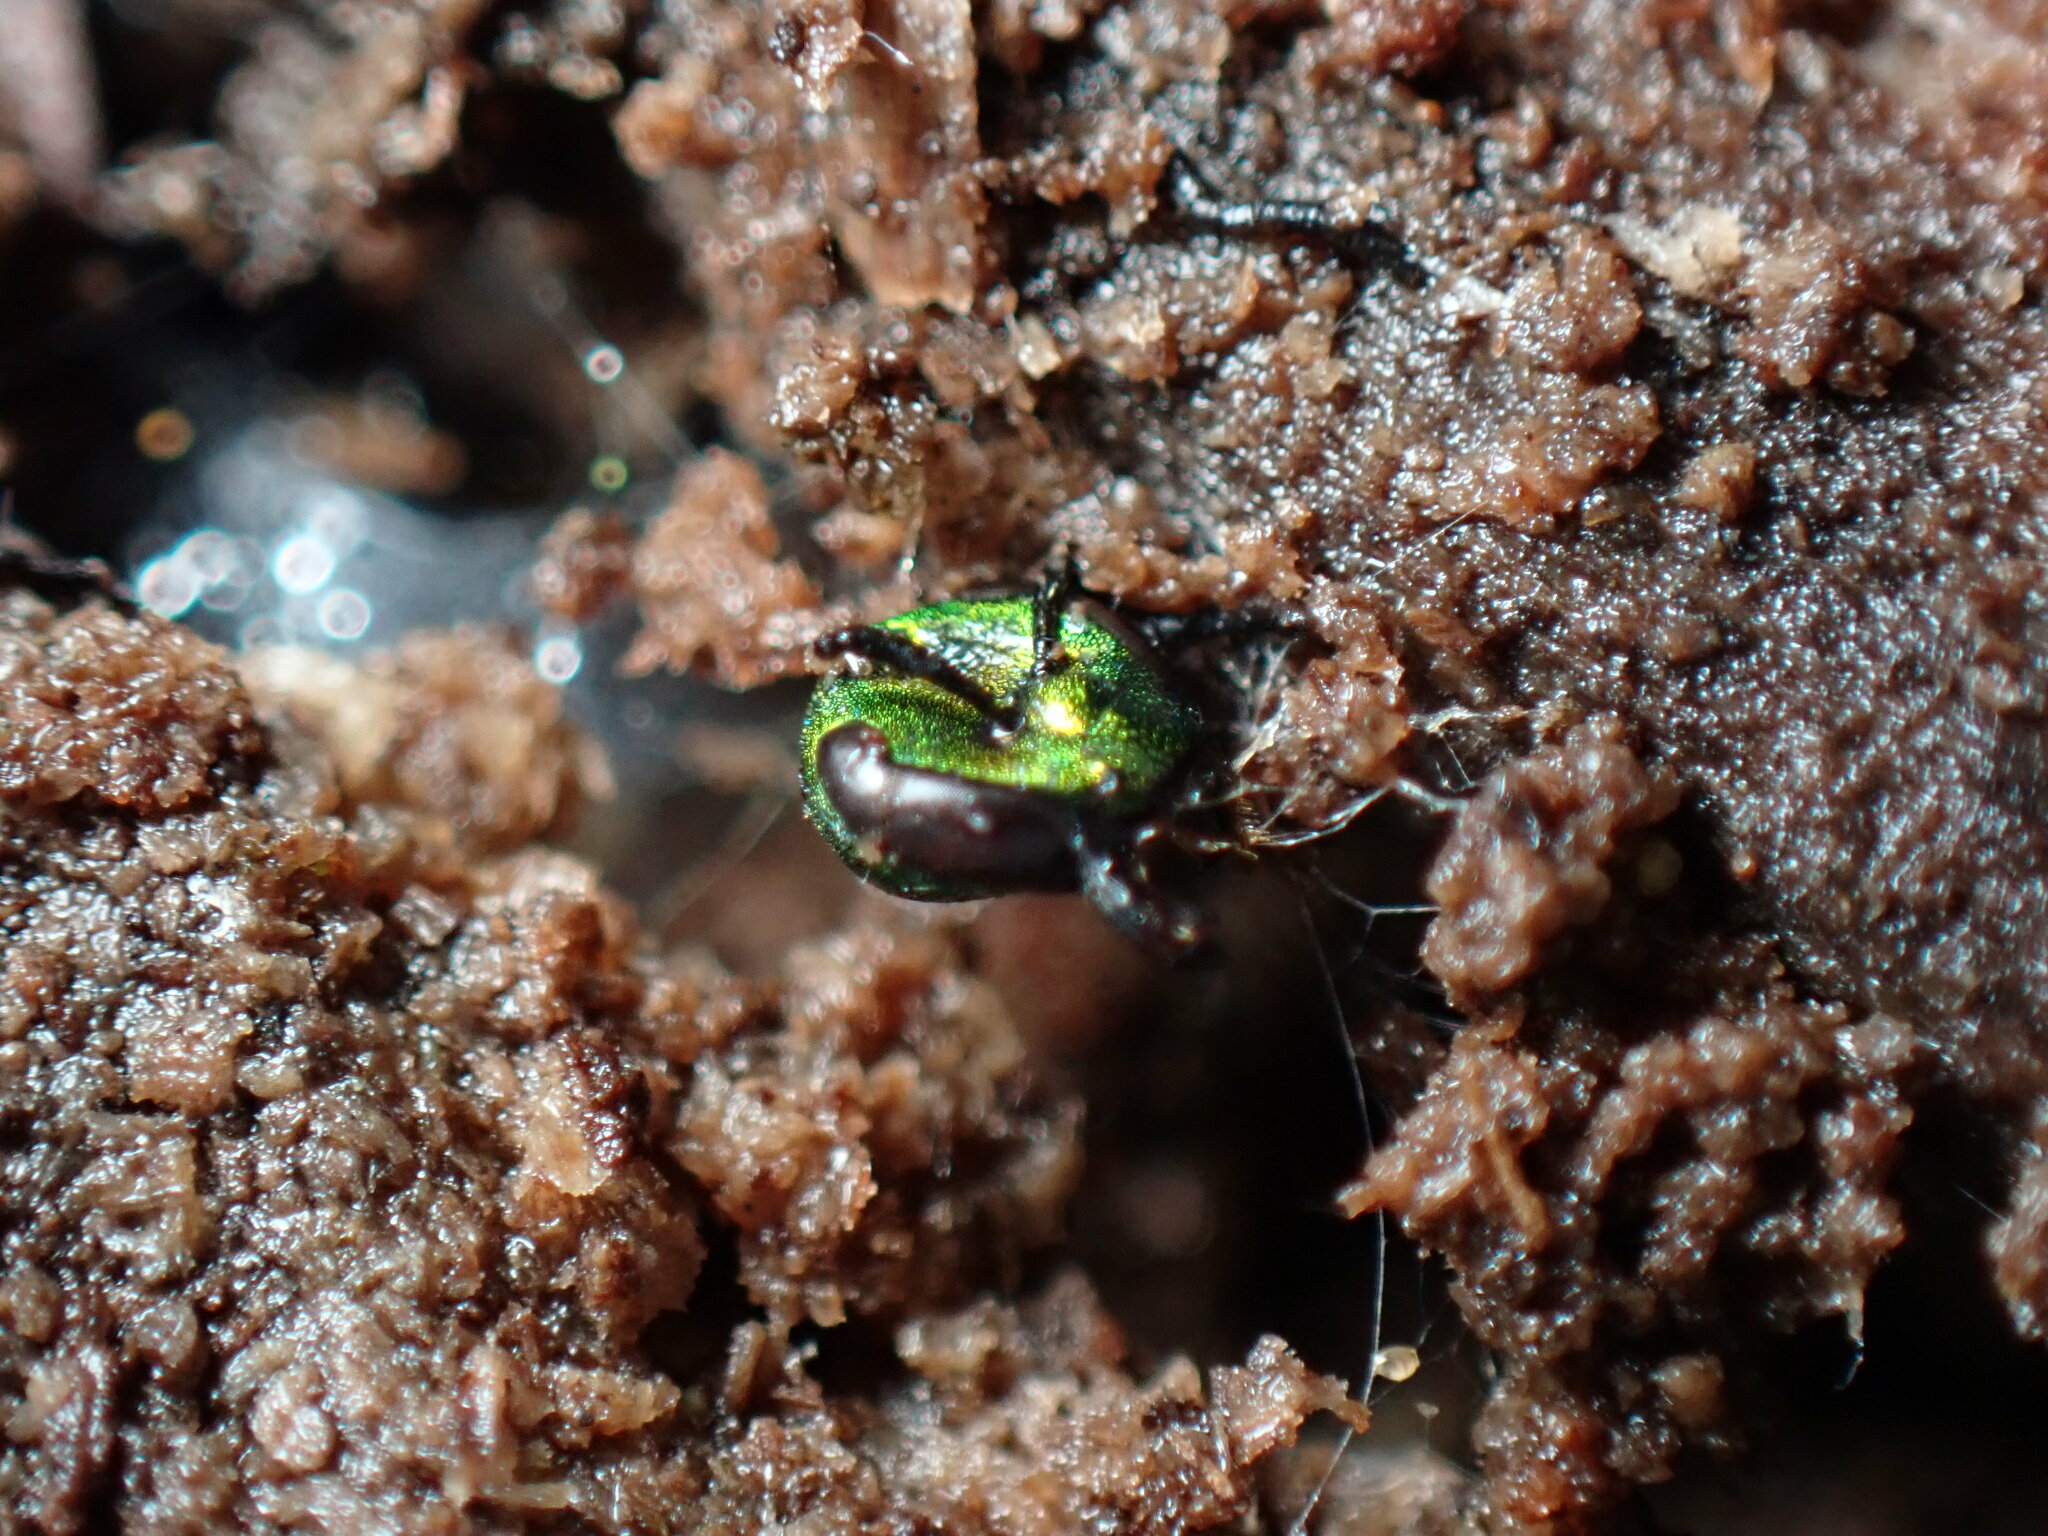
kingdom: Animalia
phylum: Arthropoda
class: Insecta
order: Hymenoptera
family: Halictidae
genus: Augochlora
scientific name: Augochlora pura
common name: Pure green sweat bee
